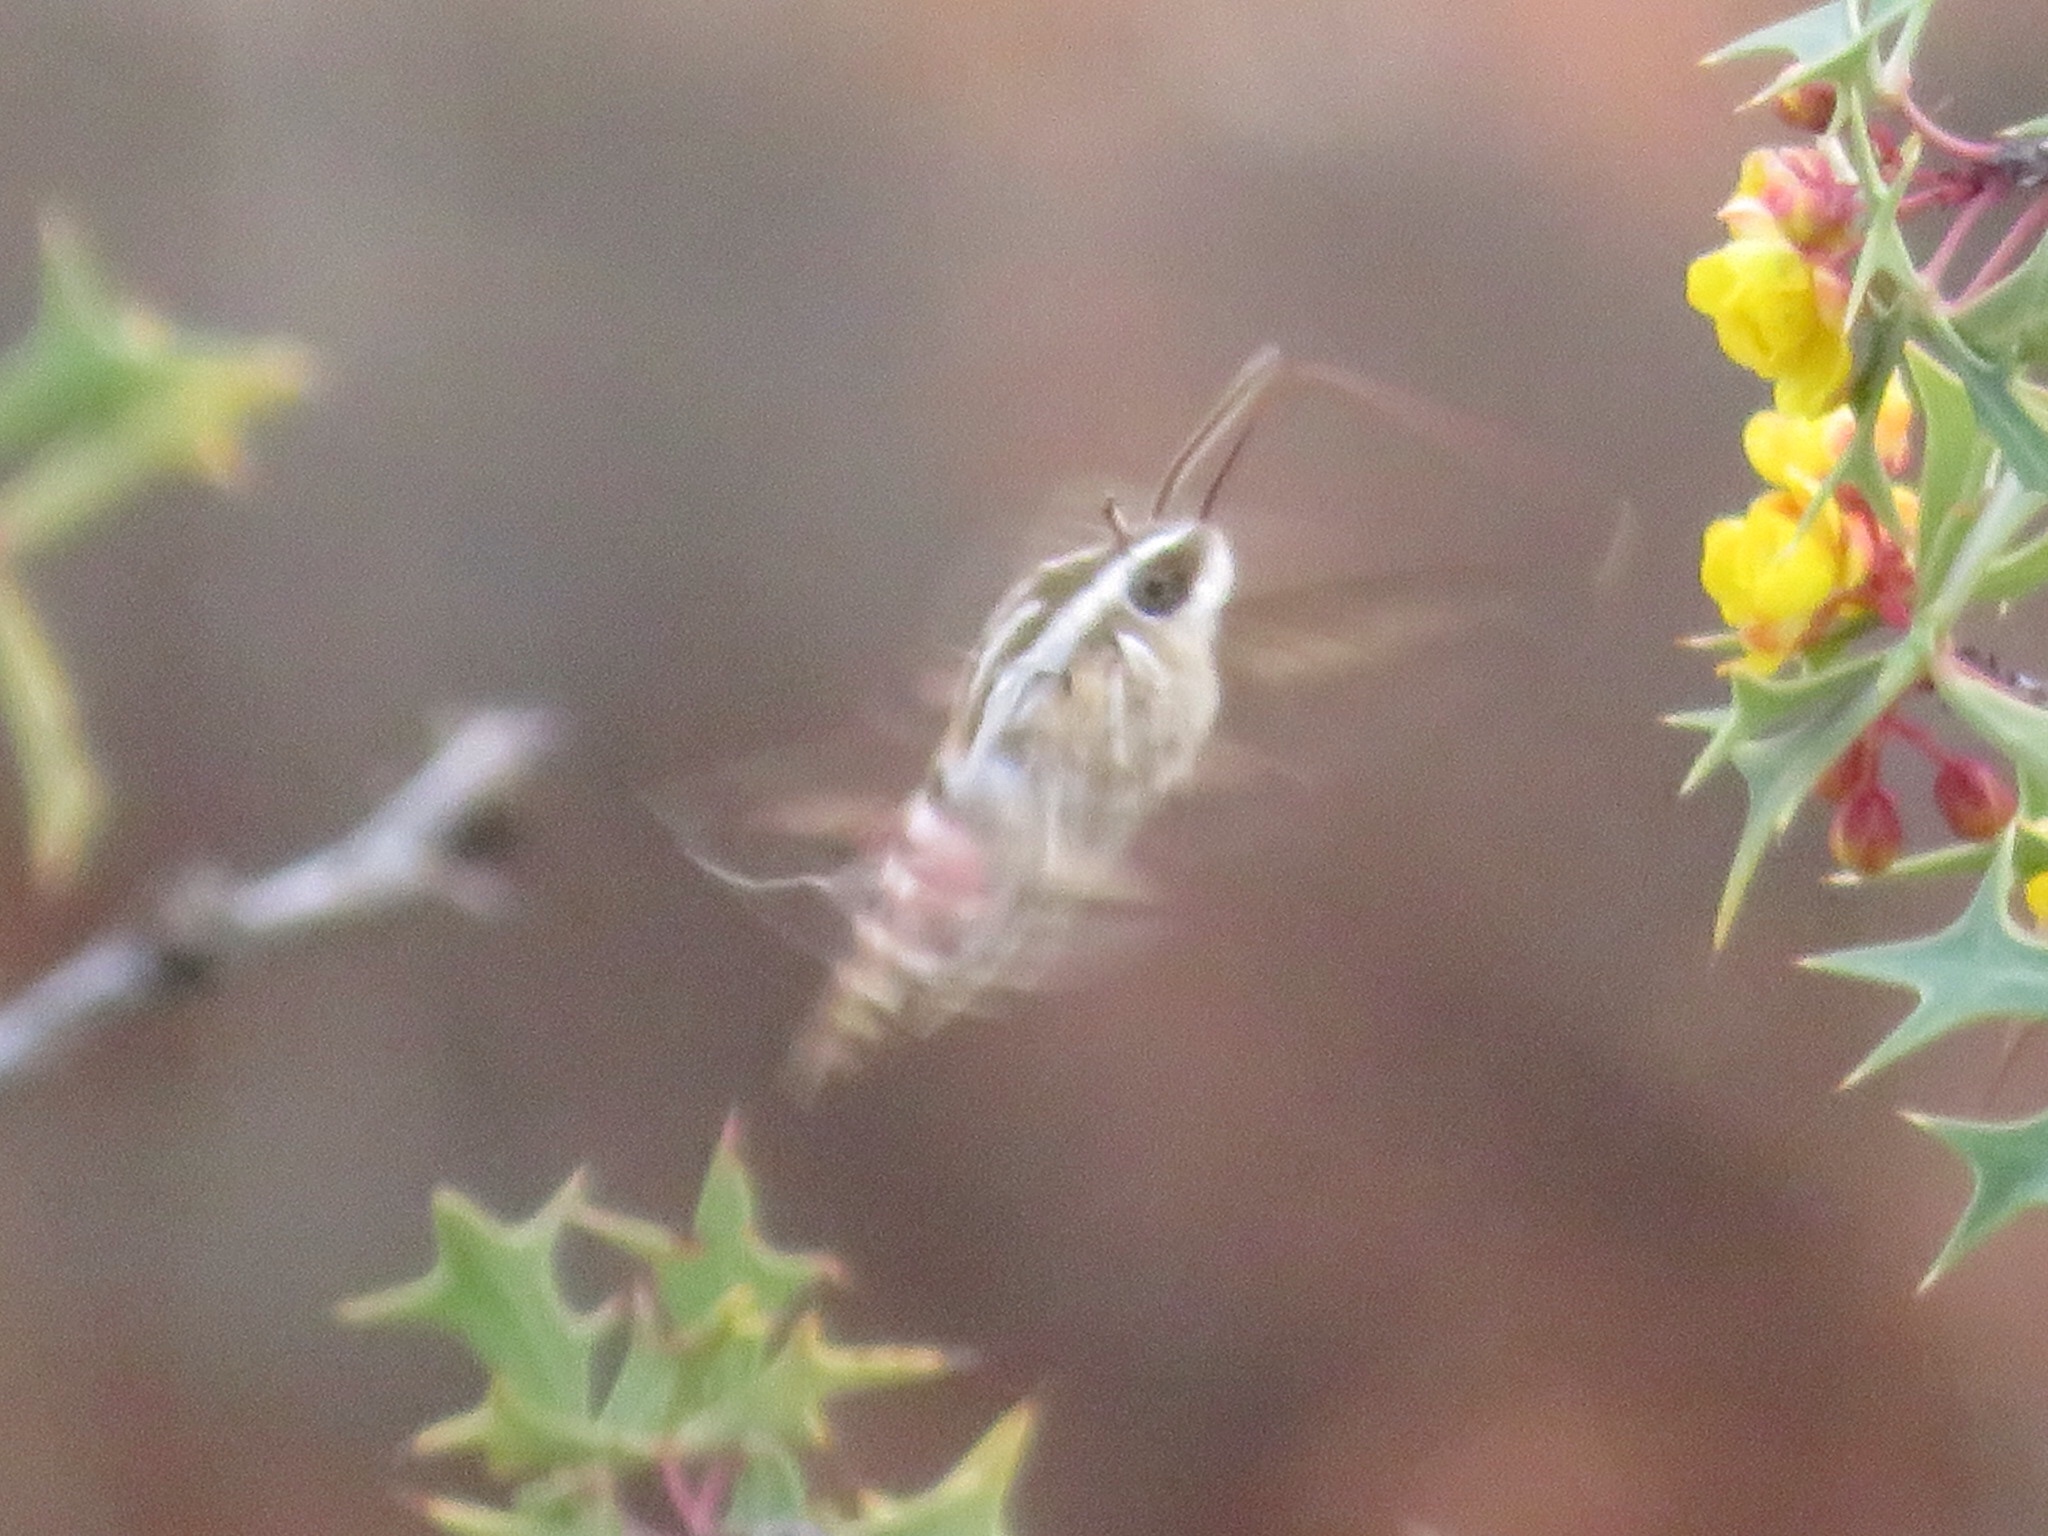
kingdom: Animalia
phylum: Arthropoda
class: Insecta
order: Lepidoptera
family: Sphingidae
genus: Hyles
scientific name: Hyles lineata
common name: White-lined sphinx
